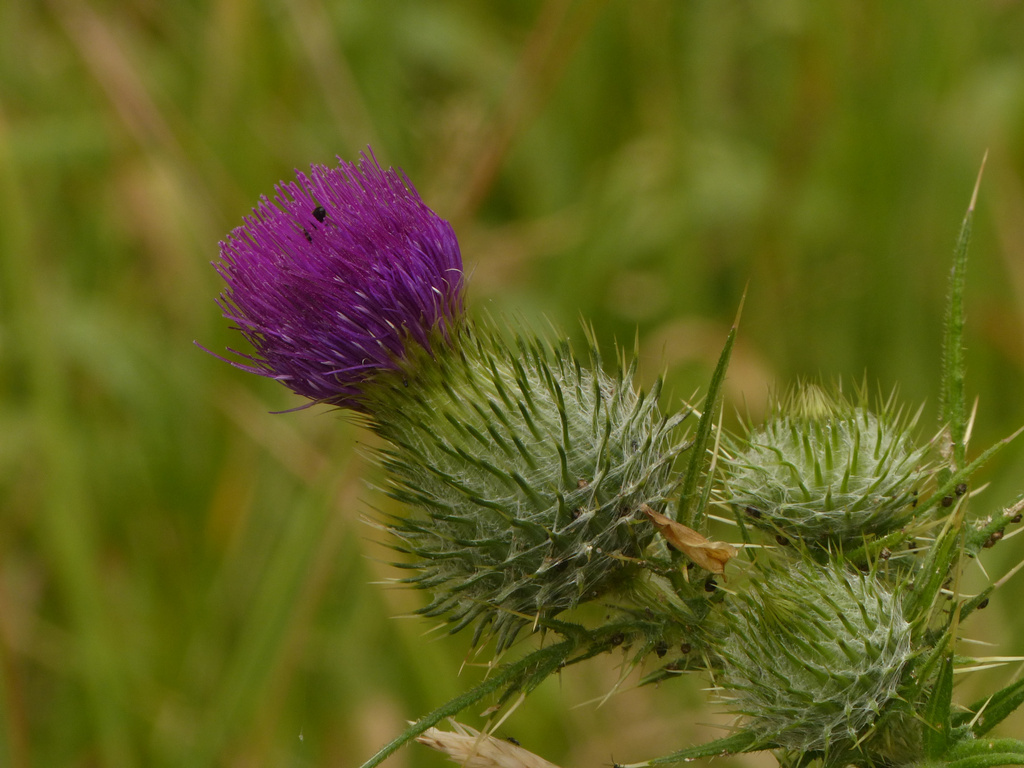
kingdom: Plantae
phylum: Tracheophyta
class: Magnoliopsida
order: Asterales
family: Asteraceae
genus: Cirsium
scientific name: Cirsium vulgare
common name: Bull thistle
